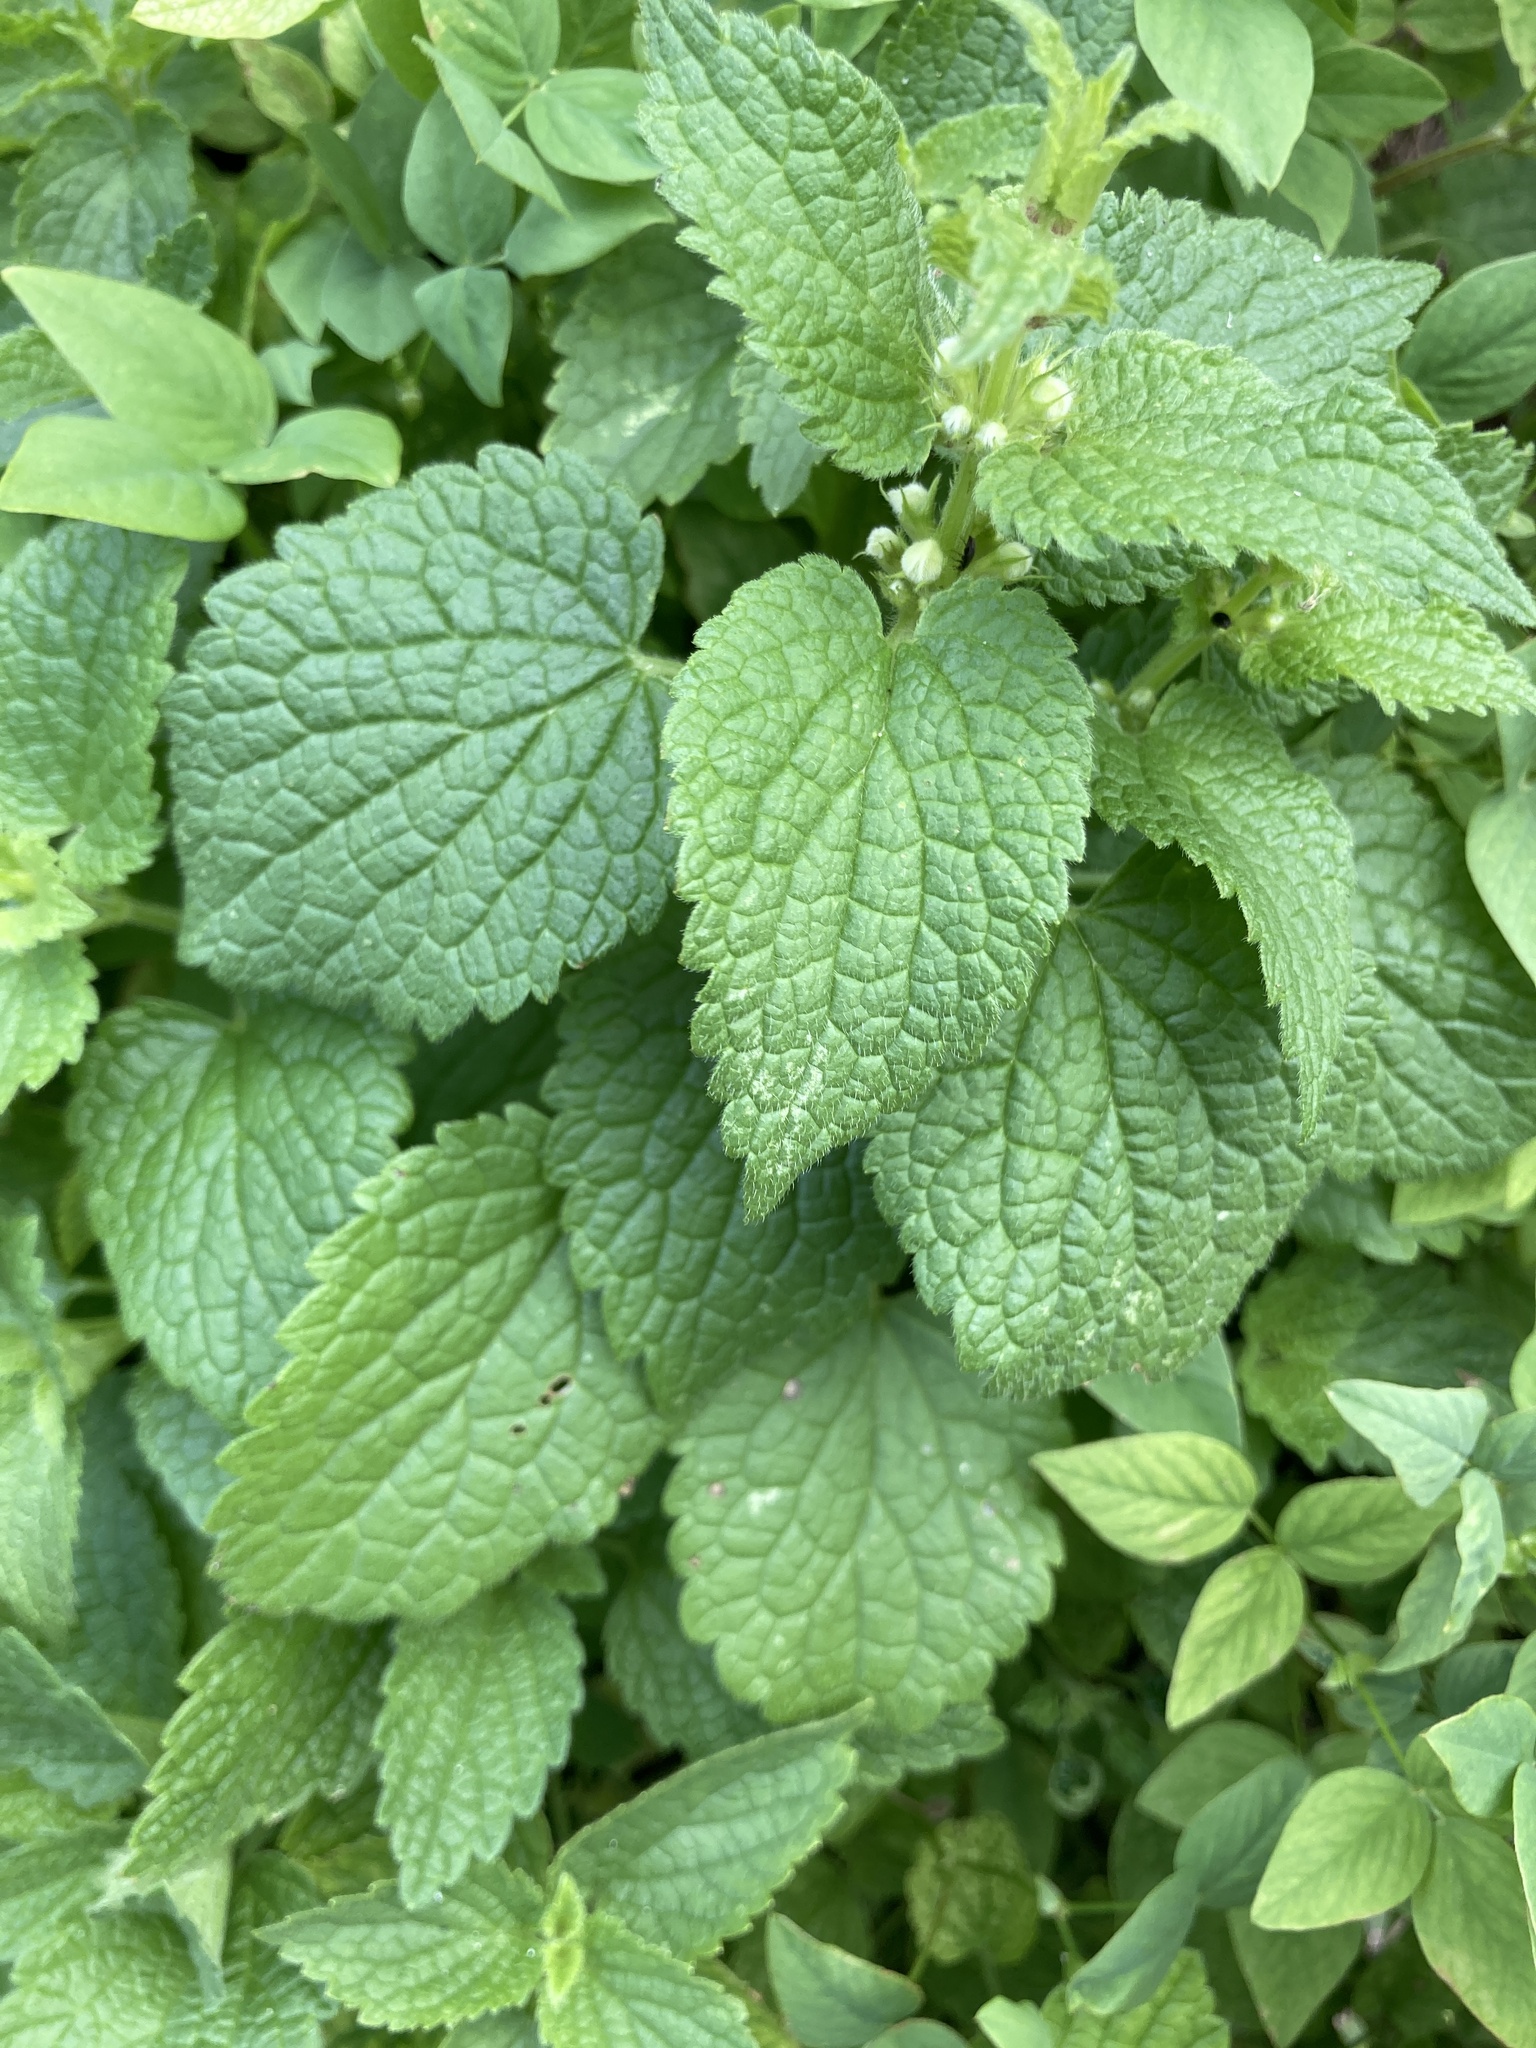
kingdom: Plantae
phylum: Tracheophyta
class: Magnoliopsida
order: Lamiales
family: Lamiaceae
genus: Lamium
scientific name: Lamium album
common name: White dead-nettle
